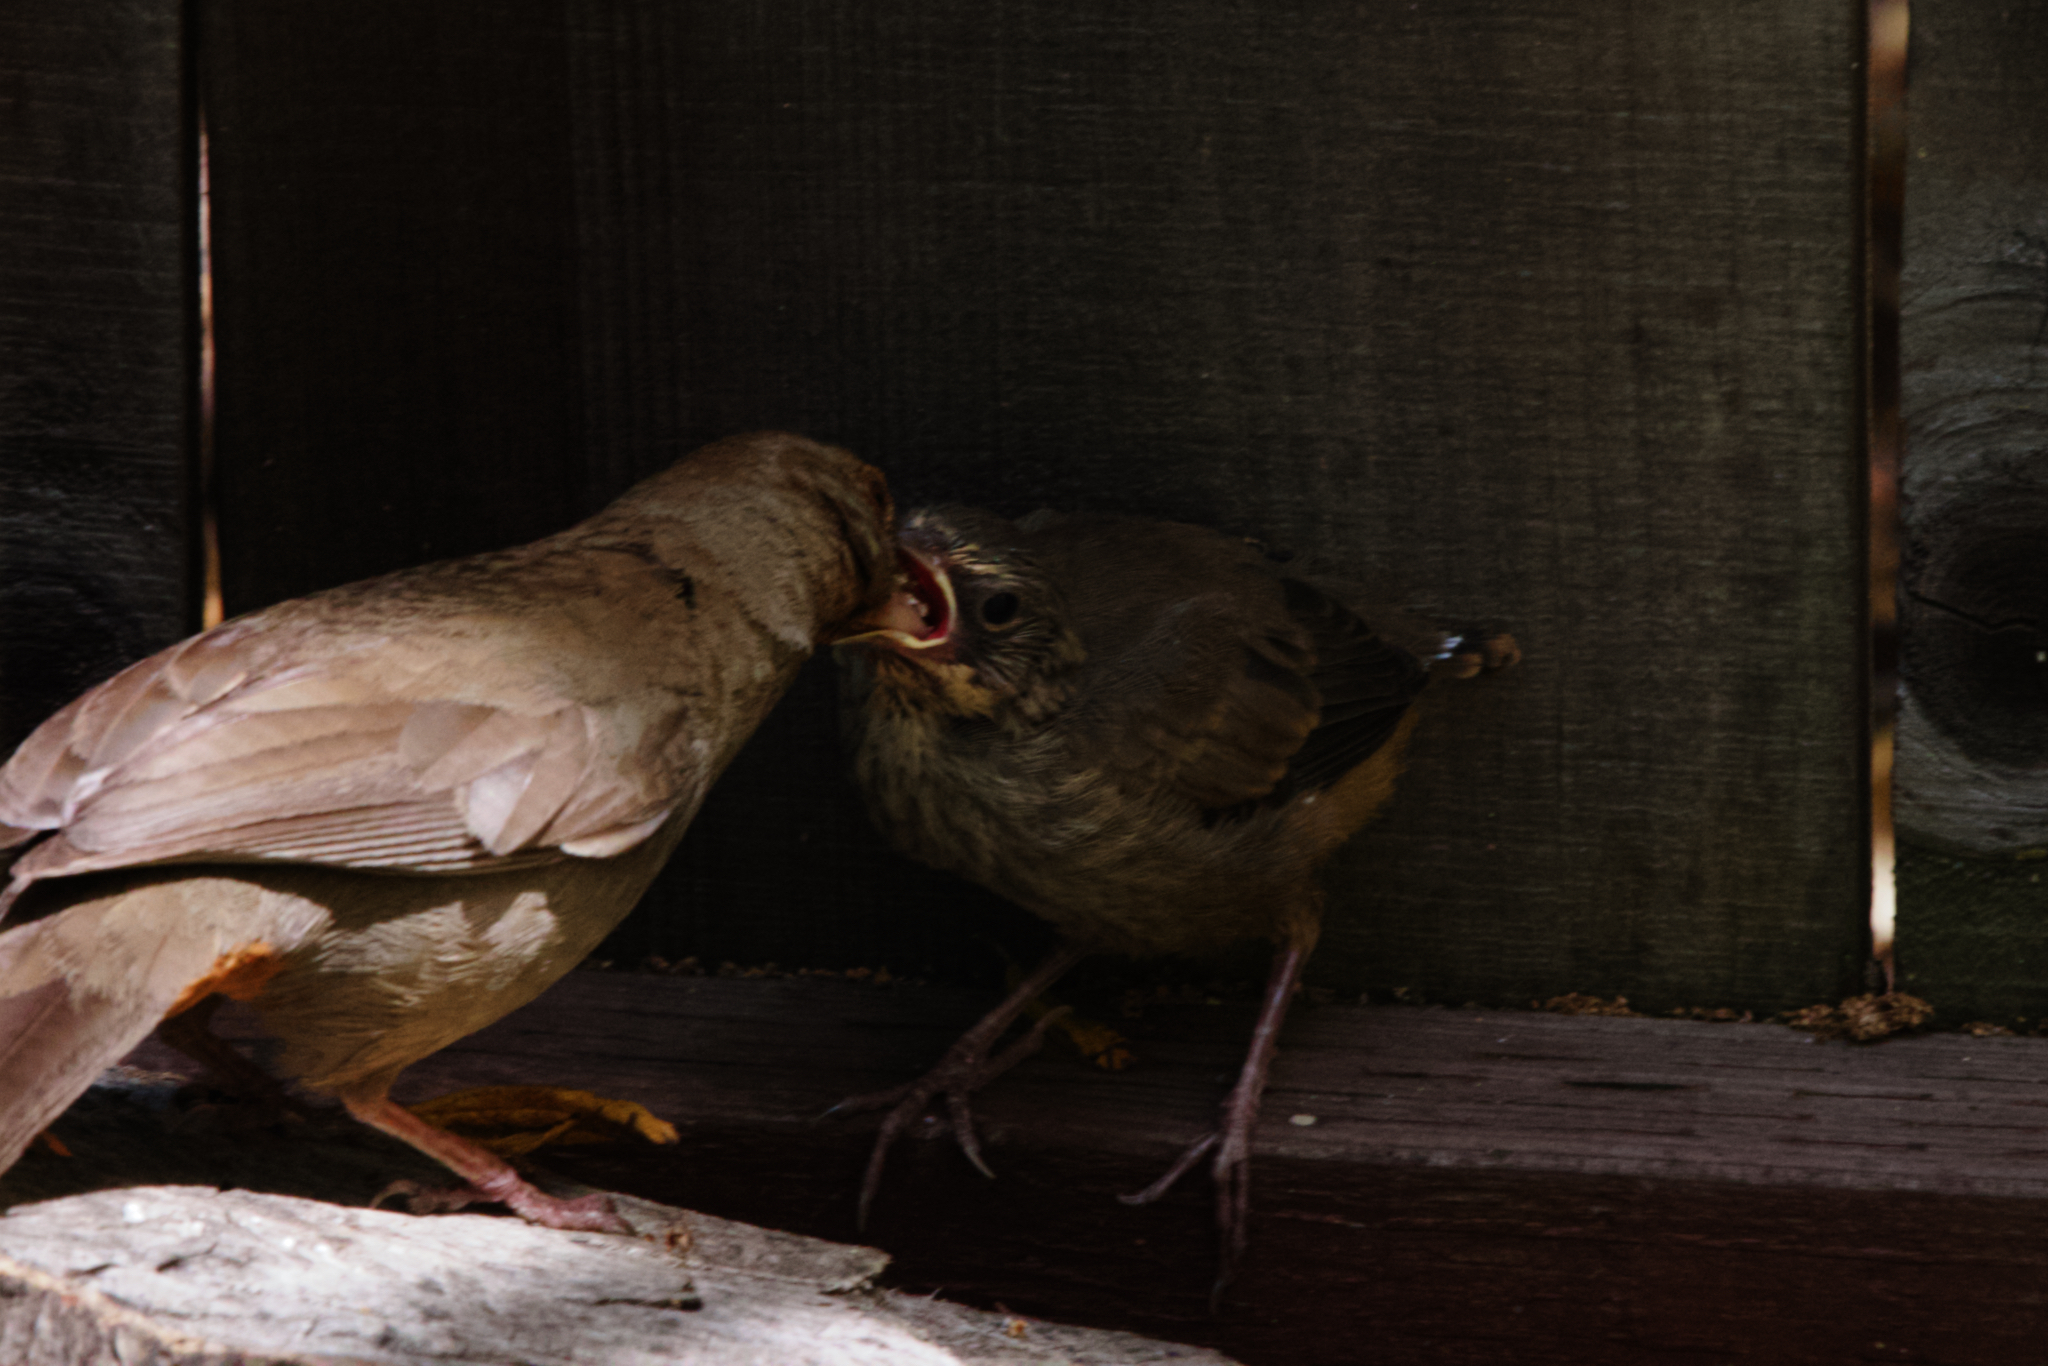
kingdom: Animalia
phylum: Chordata
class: Aves
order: Passeriformes
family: Passerellidae
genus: Melozone
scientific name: Melozone crissalis
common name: California towhee
